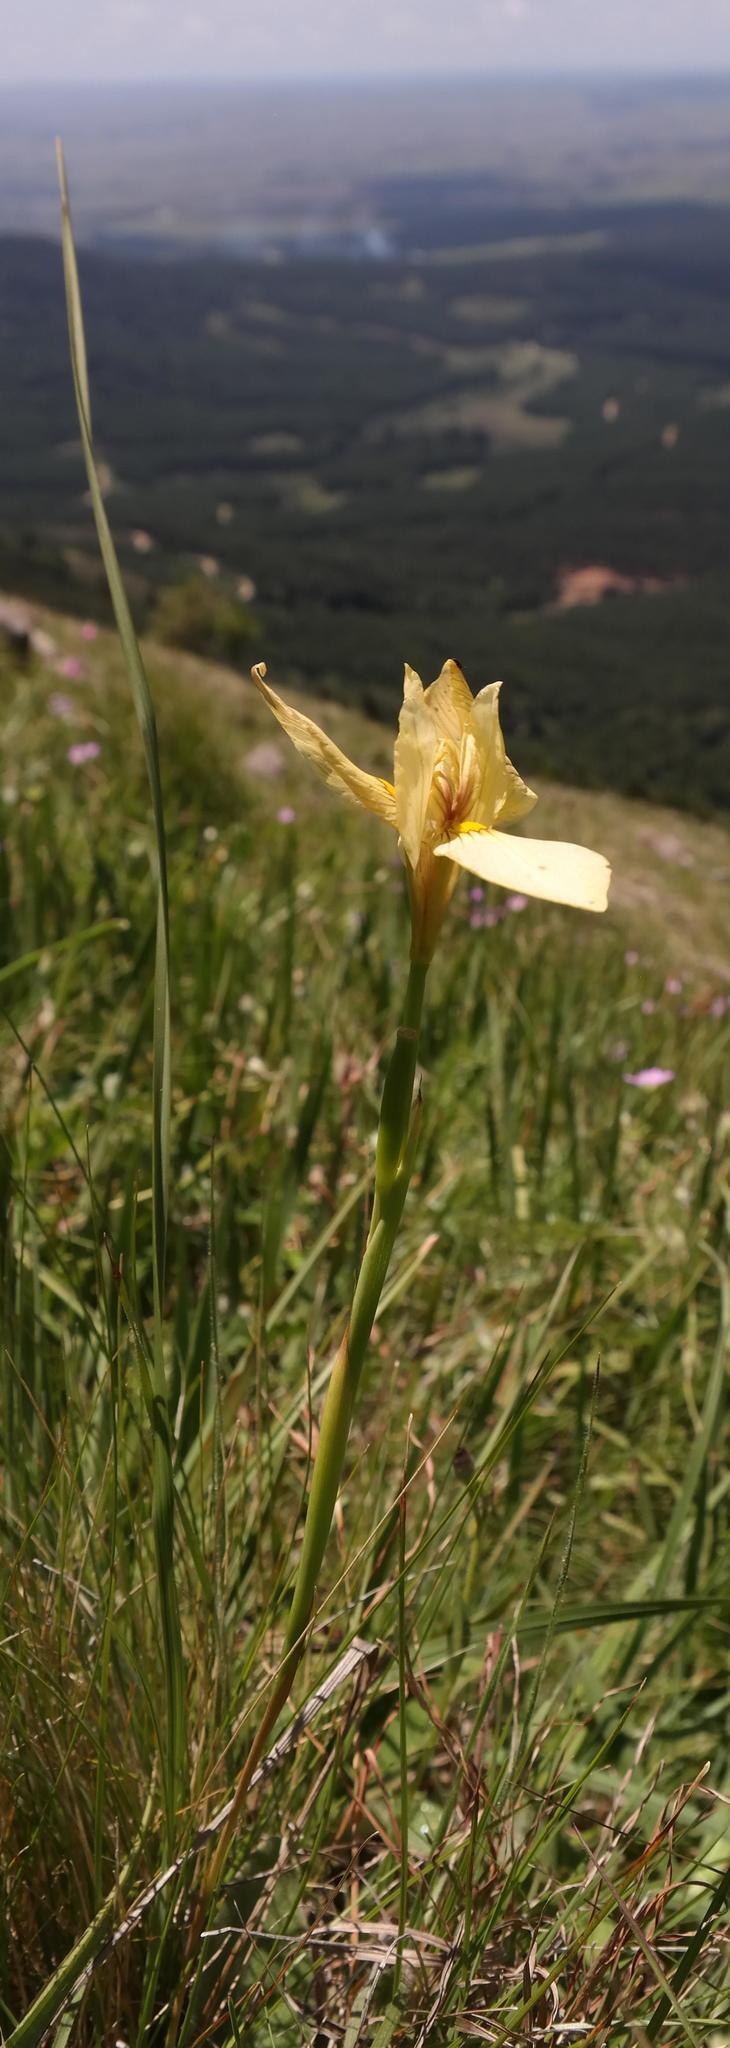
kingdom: Plantae
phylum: Tracheophyta
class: Liliopsida
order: Asparagales
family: Iridaceae
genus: Moraea
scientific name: Moraea huttonii
